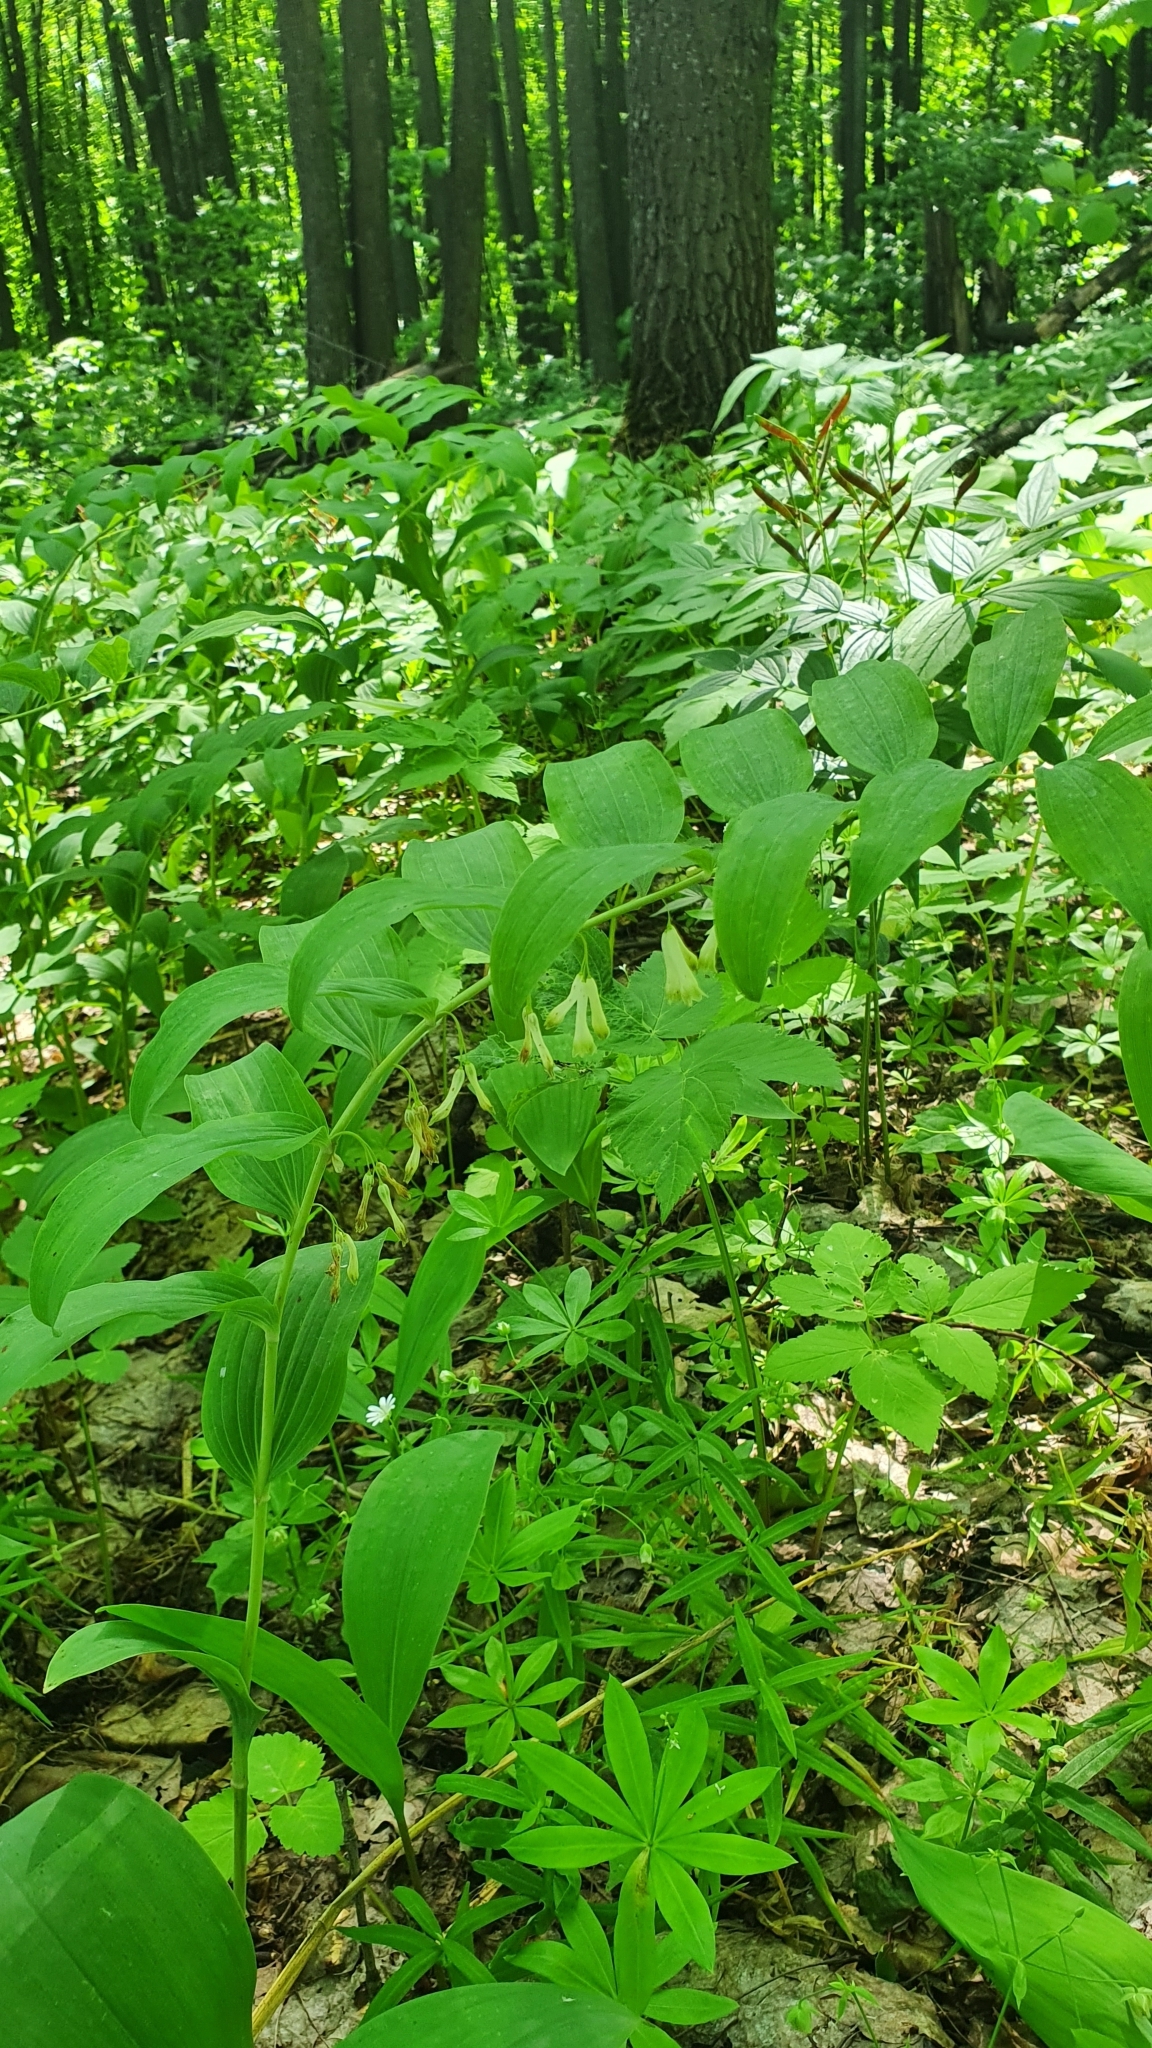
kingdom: Plantae
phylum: Tracheophyta
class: Liliopsida
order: Asparagales
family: Asparagaceae
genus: Polygonatum
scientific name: Polygonatum multiflorum
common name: Solomon's-seal
